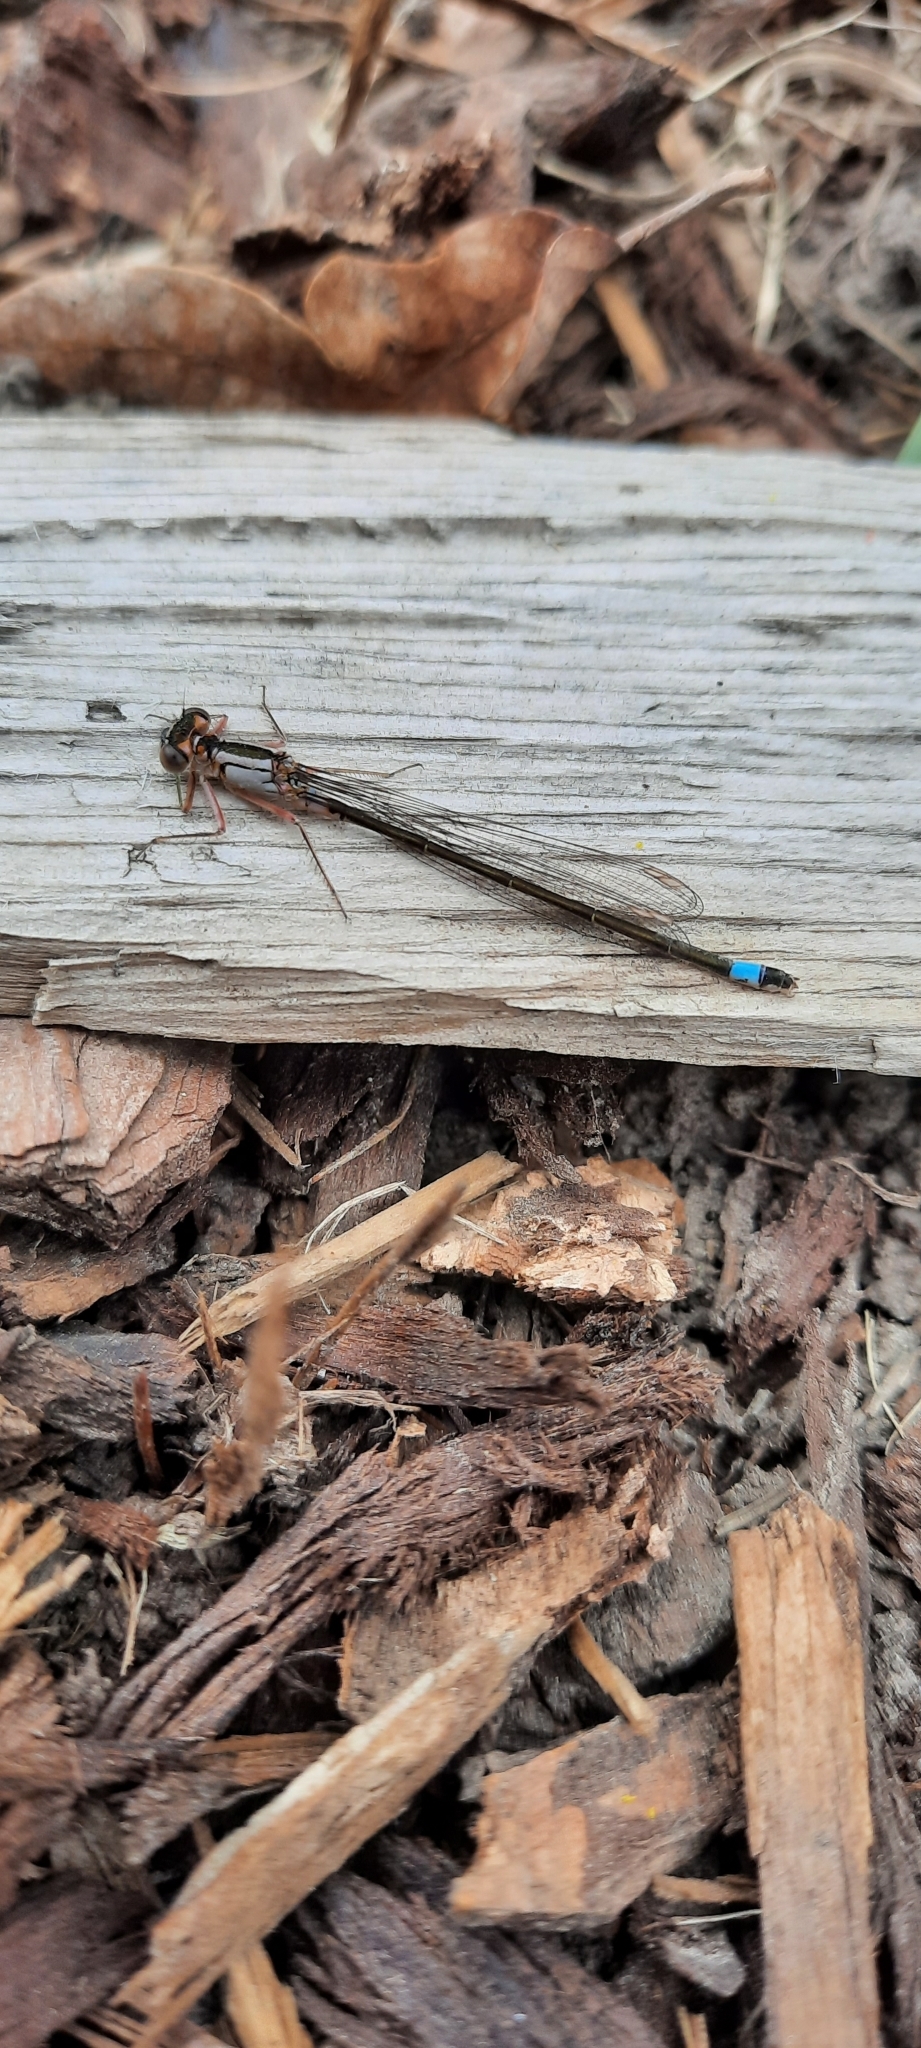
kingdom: Animalia
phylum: Arthropoda
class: Insecta
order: Odonata
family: Coenagrionidae
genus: Ischnura
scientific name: Ischnura cervula
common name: Pacific forktail
